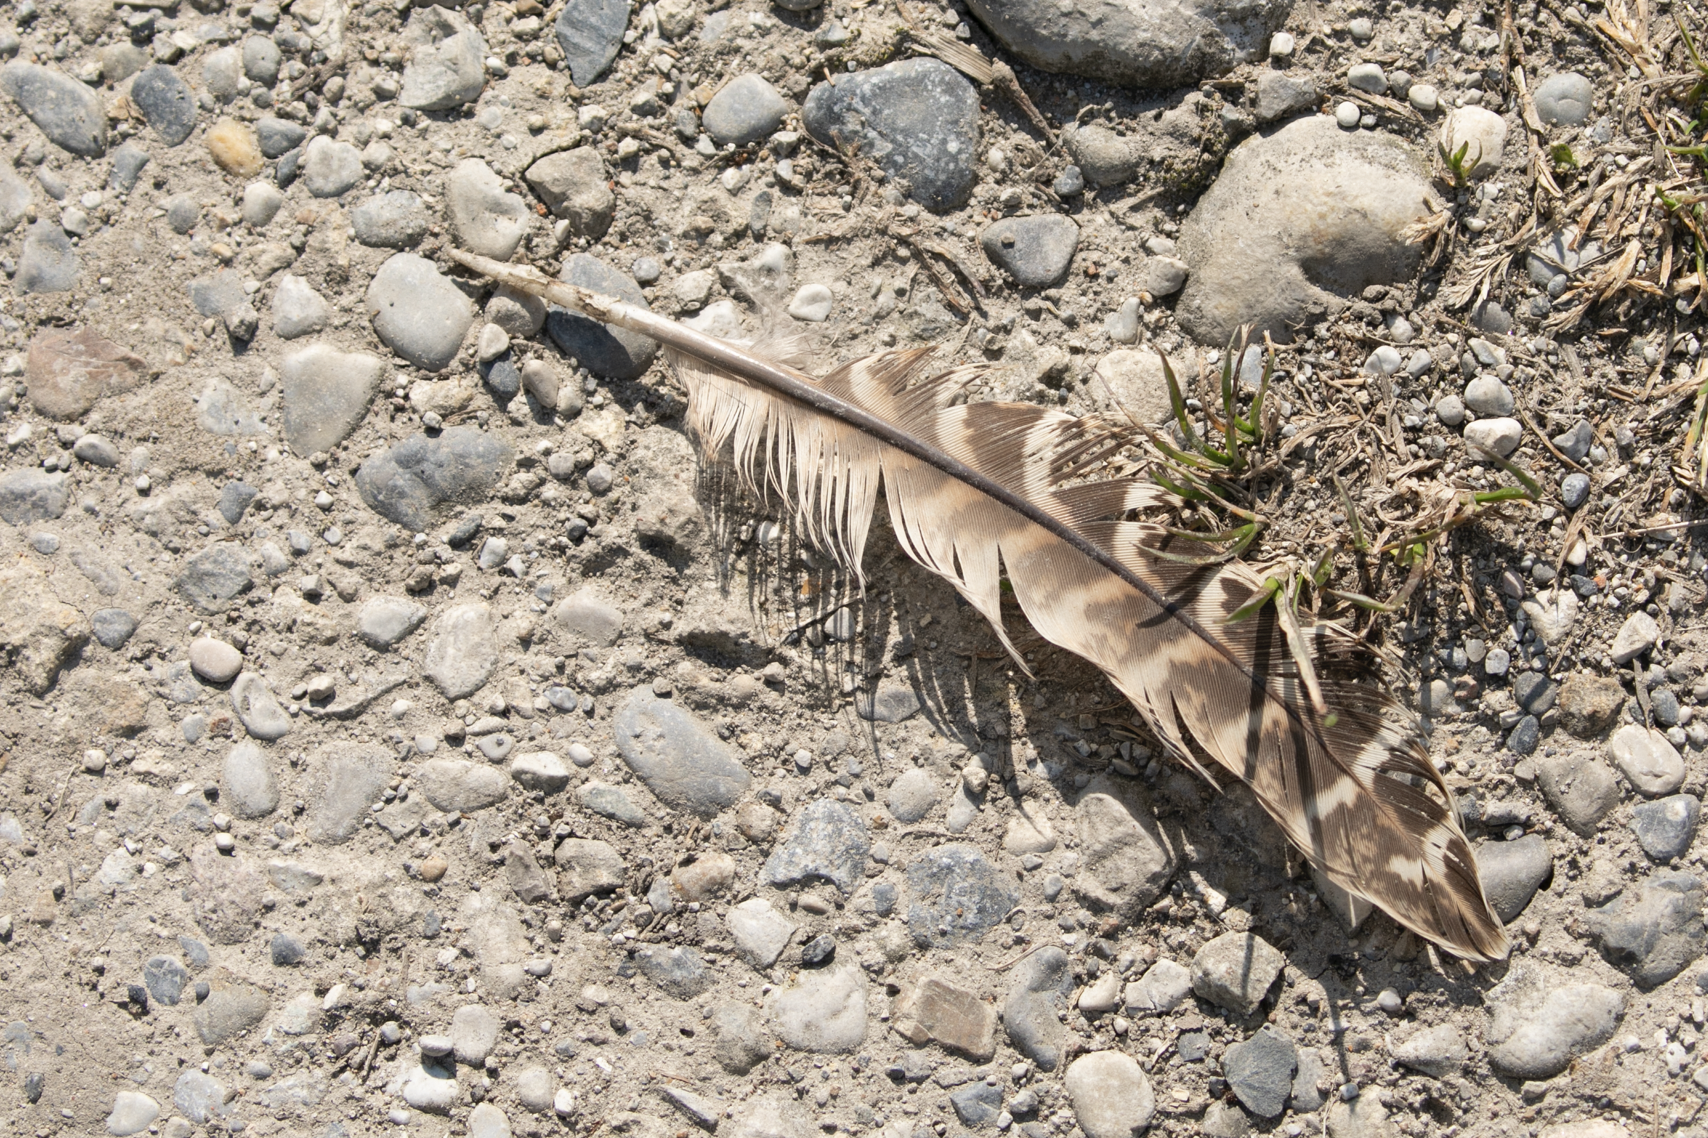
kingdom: Animalia
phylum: Chordata
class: Aves
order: Galliformes
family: Phasianidae
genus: Phasianus
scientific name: Phasianus colchicus
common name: Common pheasant
